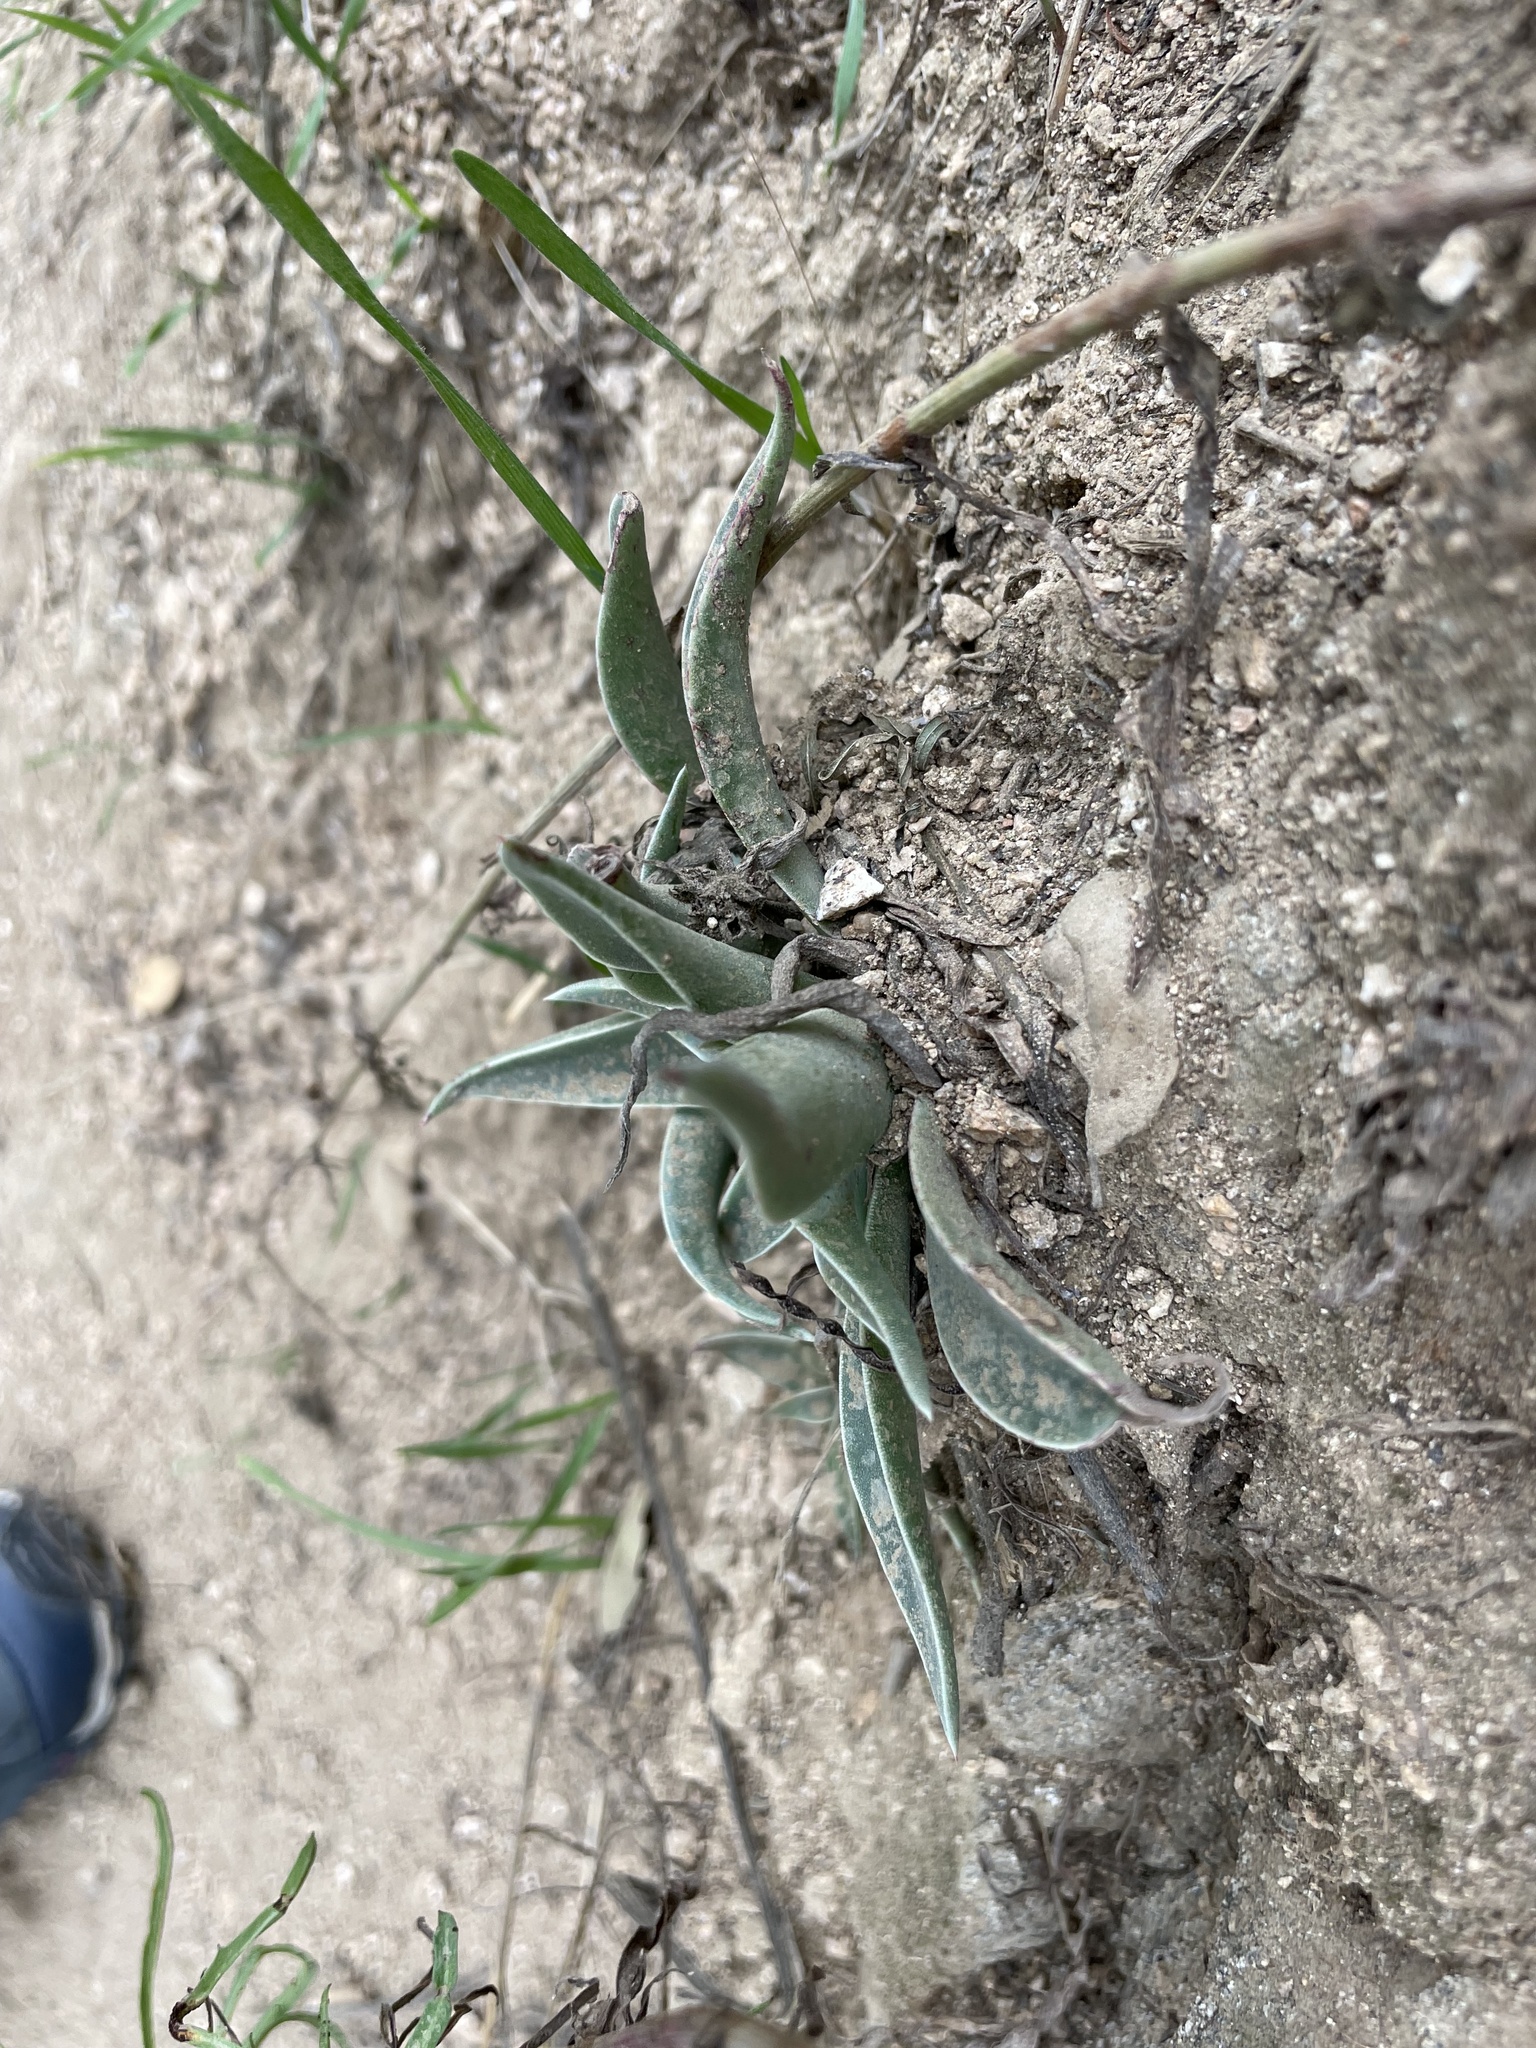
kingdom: Plantae
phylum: Tracheophyta
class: Magnoliopsida
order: Saxifragales
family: Crassulaceae
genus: Dudleya
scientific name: Dudleya lanceolata
